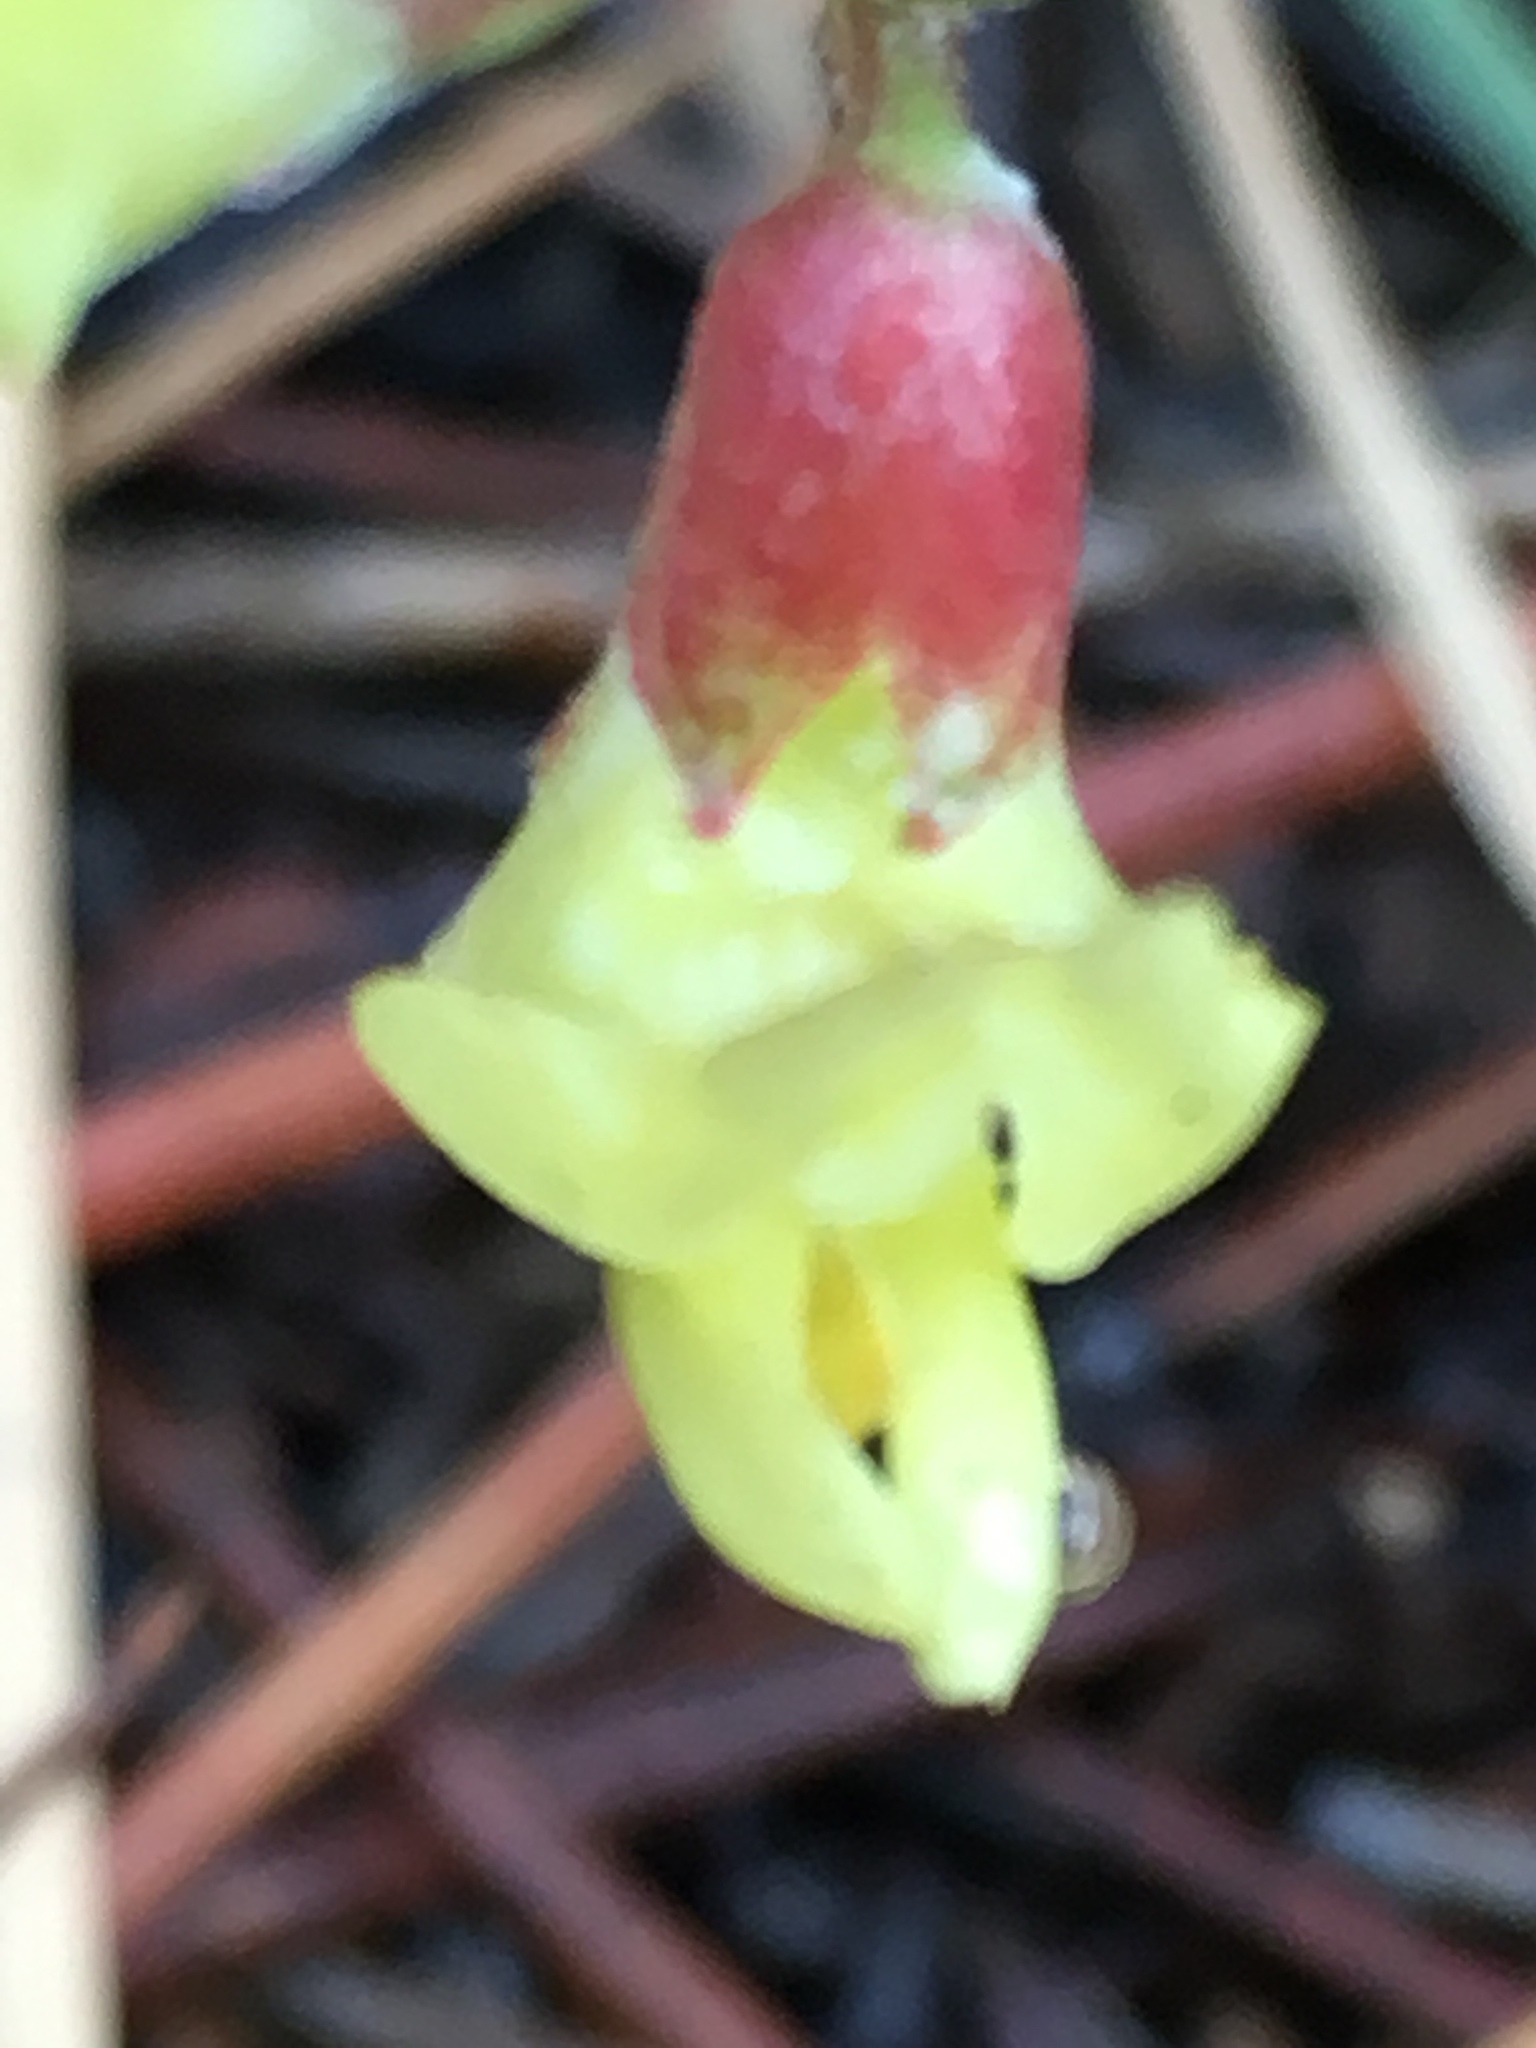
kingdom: Plantae
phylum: Tracheophyta
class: Magnoliopsida
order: Fabales
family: Fabaceae
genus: Astragalus
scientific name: Astragalus douglasii
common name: Jacumba milkvetch
